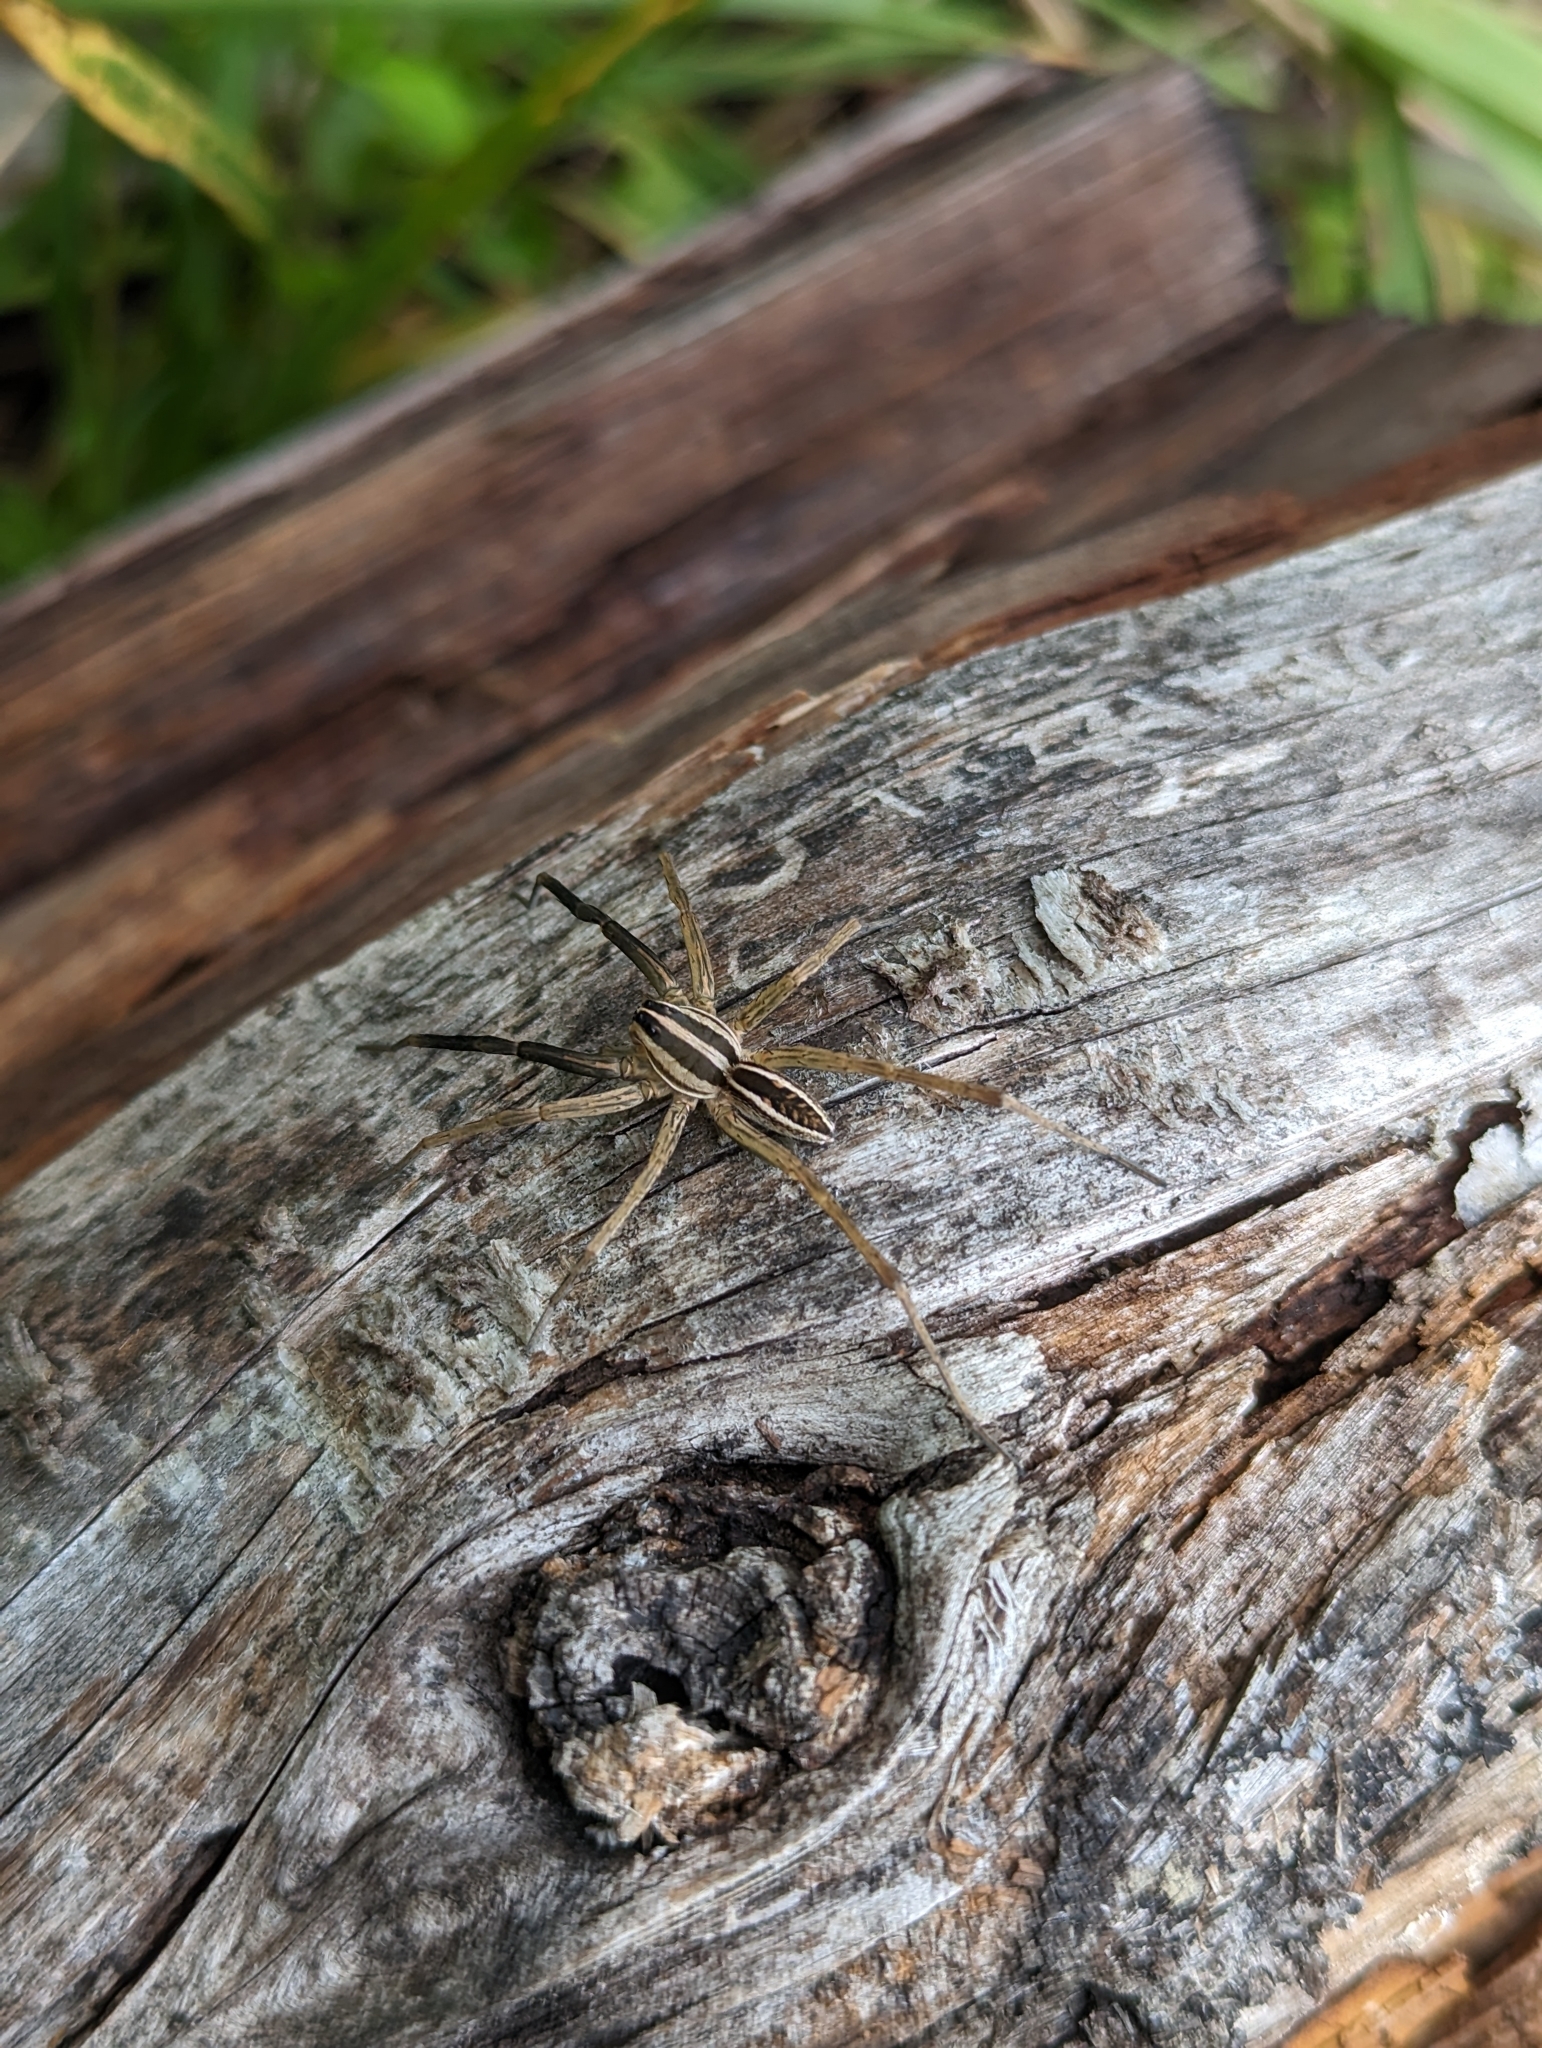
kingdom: Animalia
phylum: Arthropoda
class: Arachnida
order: Araneae
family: Lycosidae
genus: Rabidosa
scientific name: Rabidosa rabida
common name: Rabid wolf spider
